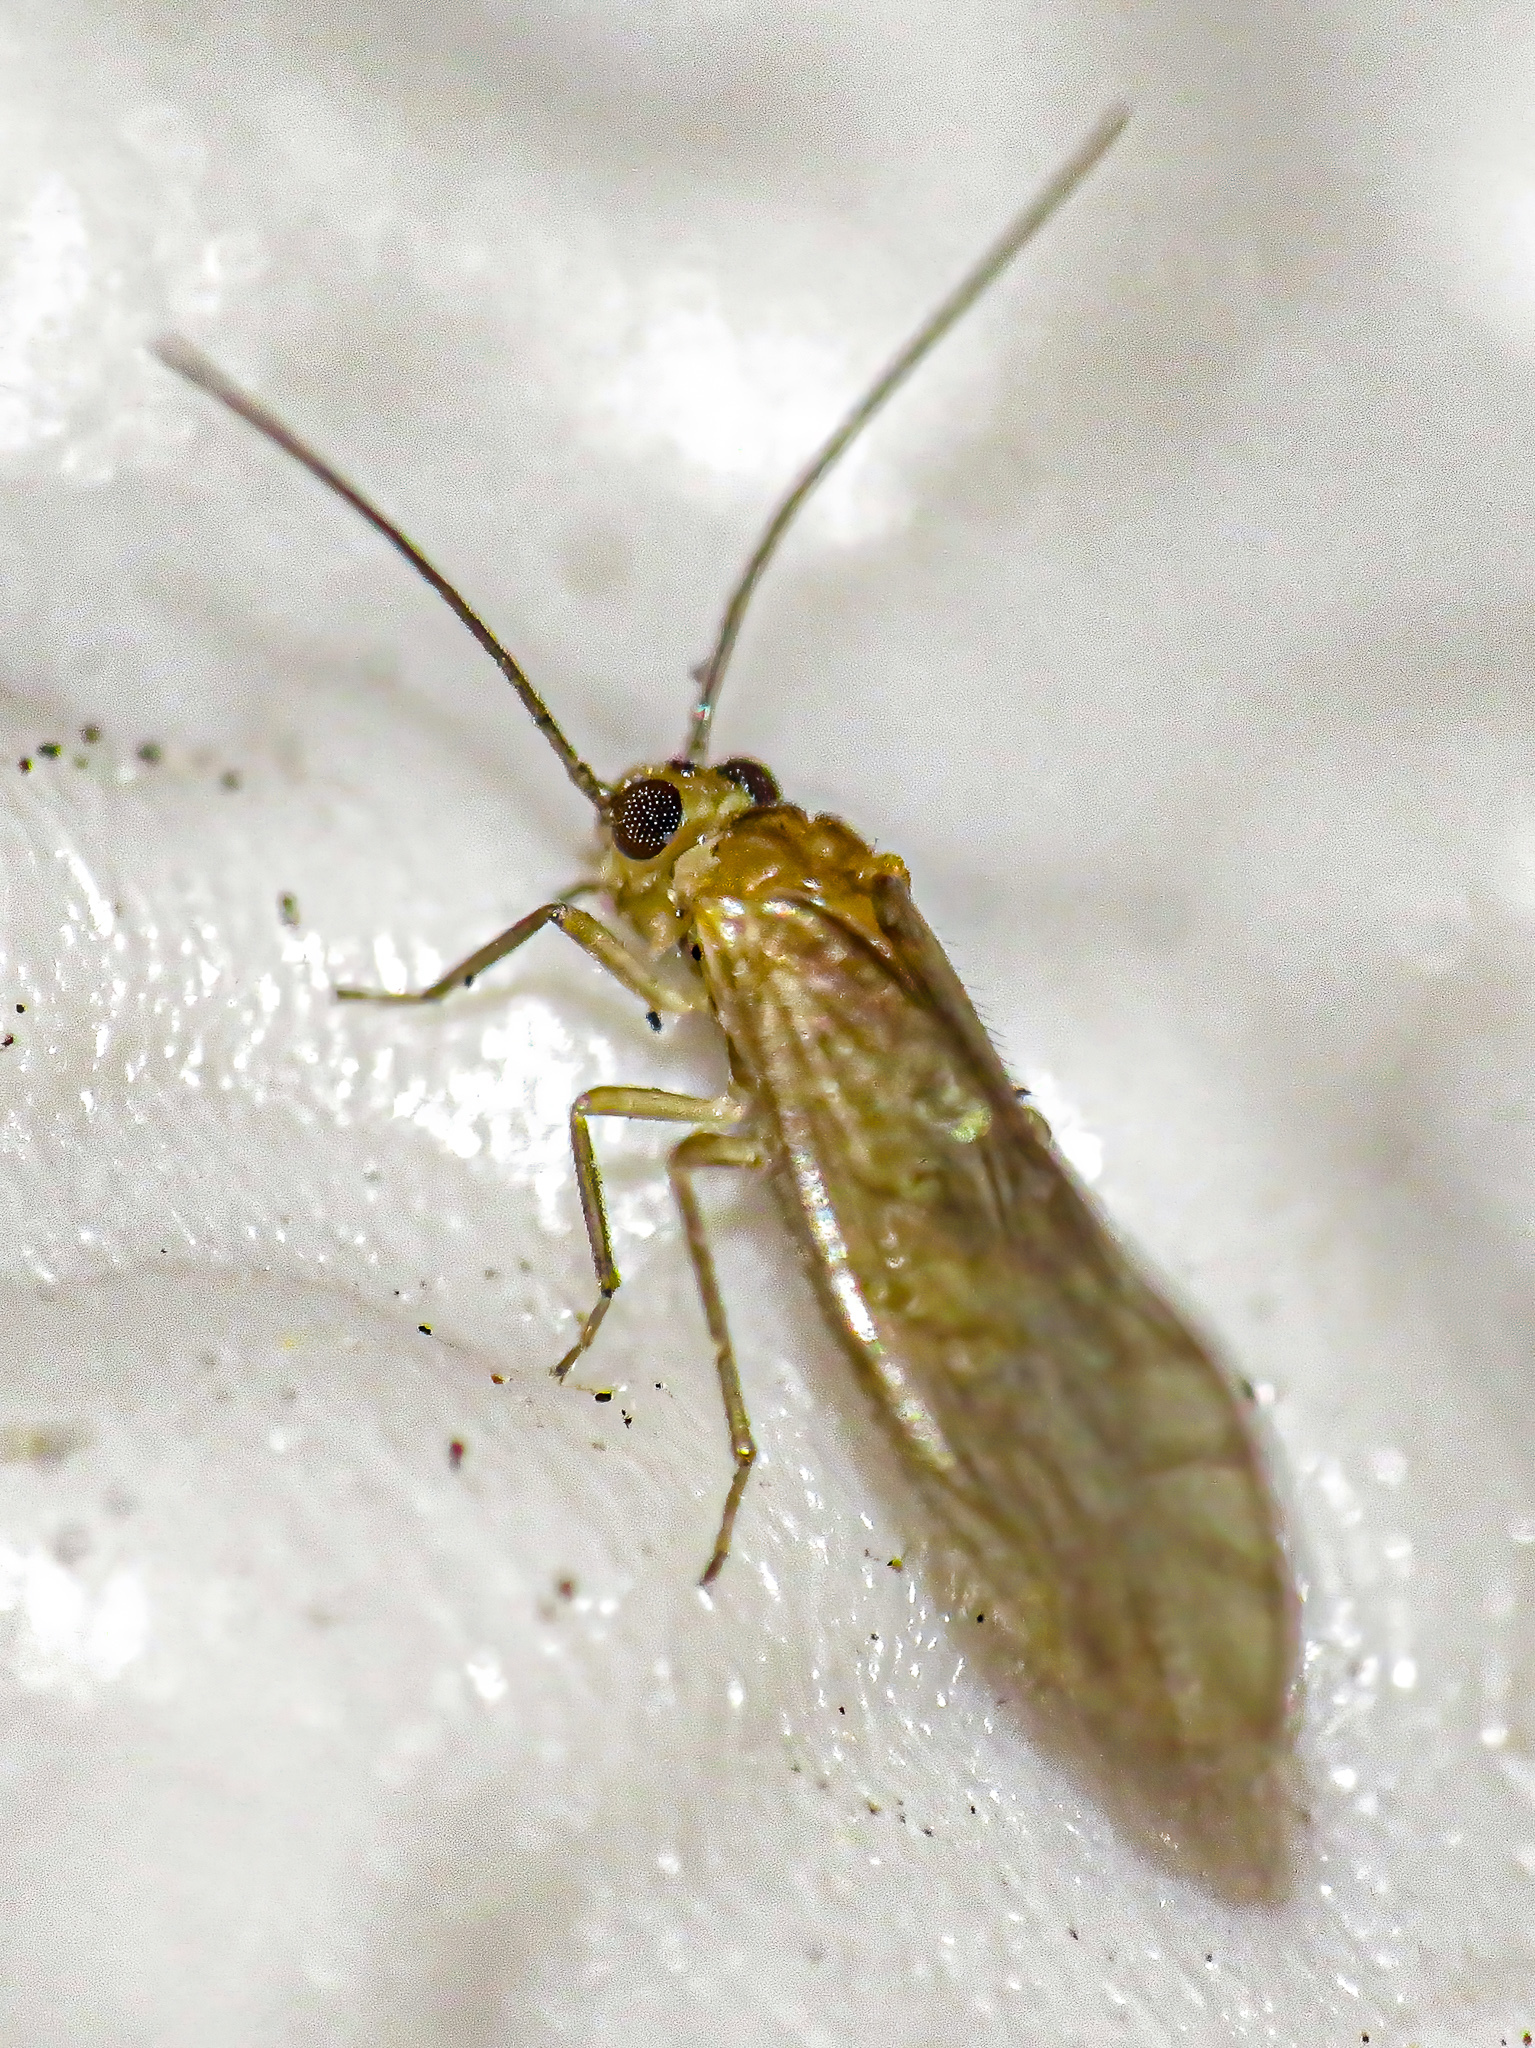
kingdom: Animalia
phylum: Arthropoda
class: Insecta
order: Psocodea
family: Caeciliusidae
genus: Valenzuela
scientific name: Valenzuela flavidus
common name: Yellow barklouse
